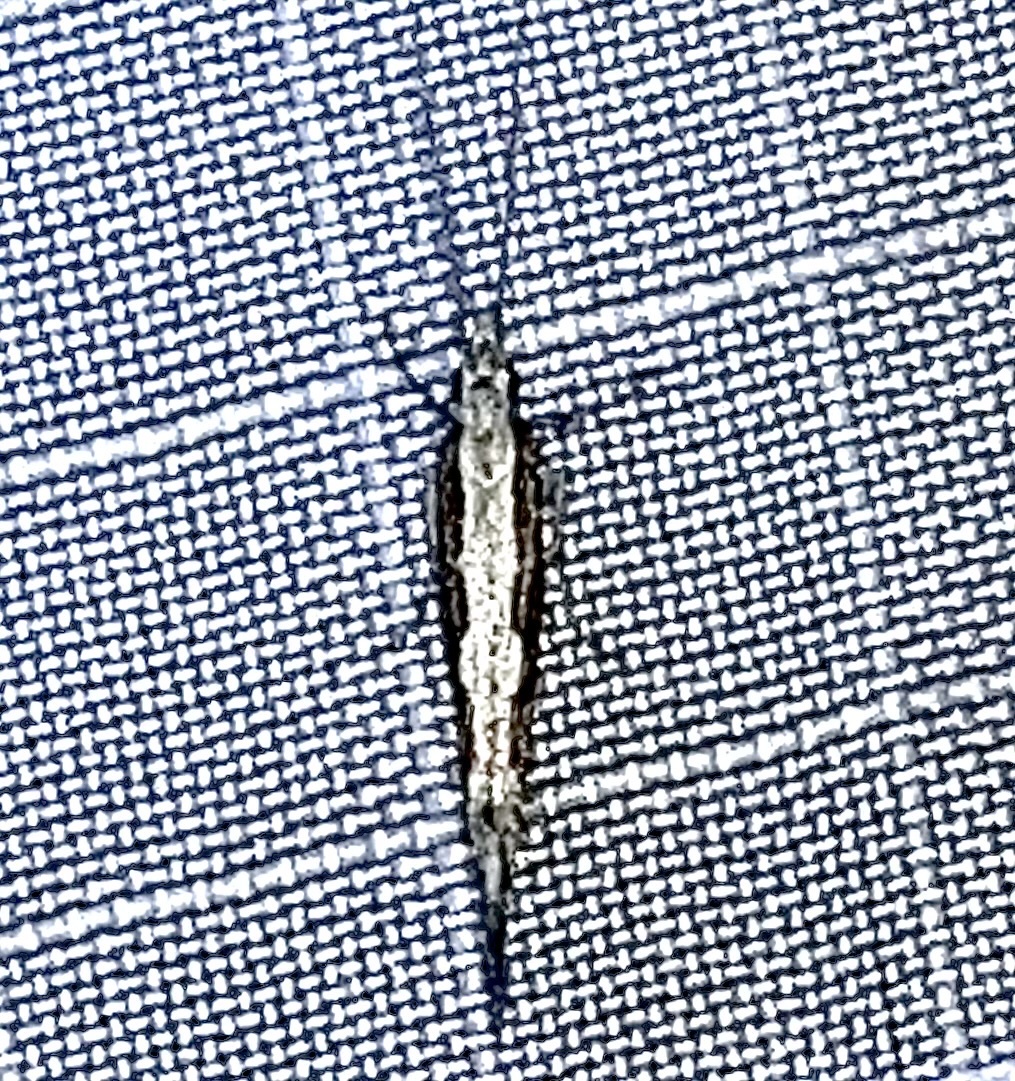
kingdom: Animalia
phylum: Arthropoda
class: Insecta
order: Lepidoptera
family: Plutellidae
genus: Plutella
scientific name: Plutella xylostella
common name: Diamond-back moth
